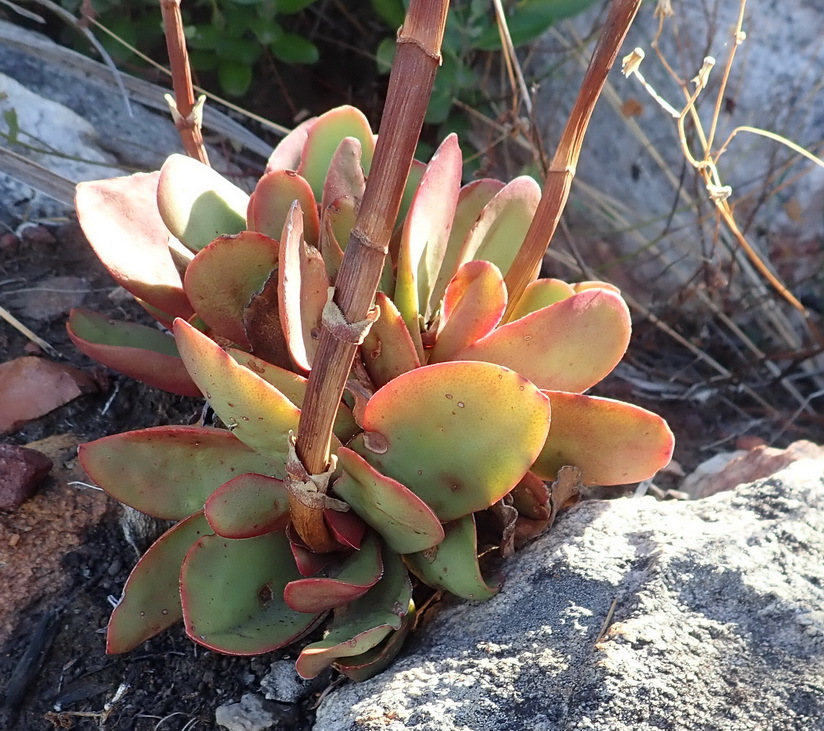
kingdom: Plantae
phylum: Tracheophyta
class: Magnoliopsida
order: Saxifragales
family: Crassulaceae
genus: Crassula
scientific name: Crassula atropurpurea
